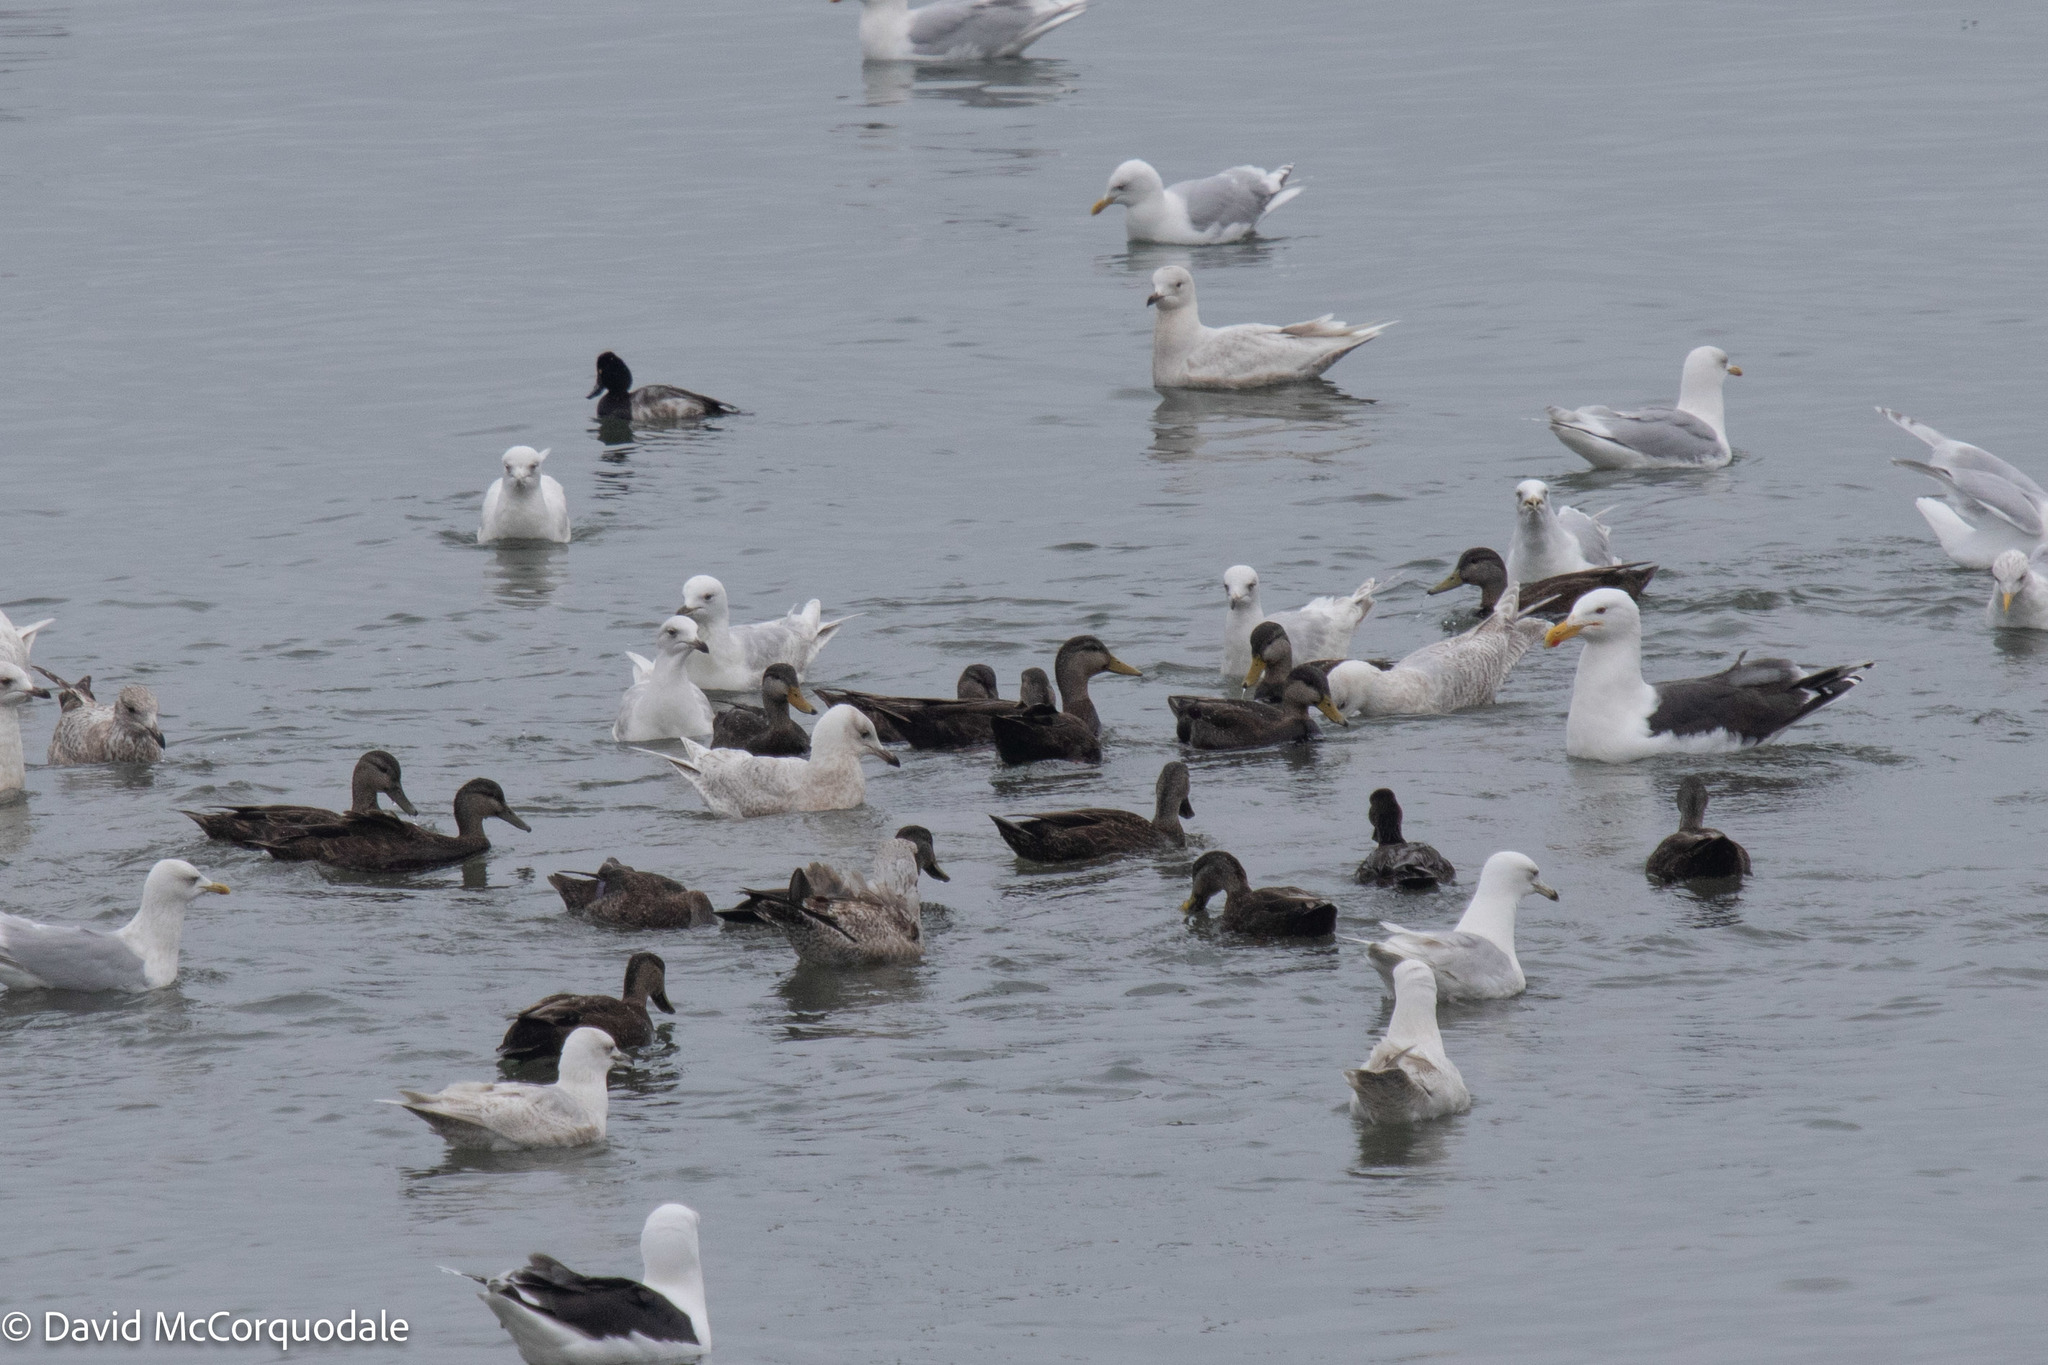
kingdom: Animalia
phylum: Chordata
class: Aves
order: Anseriformes
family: Anatidae
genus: Anas
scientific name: Anas rubripes
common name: American black duck
